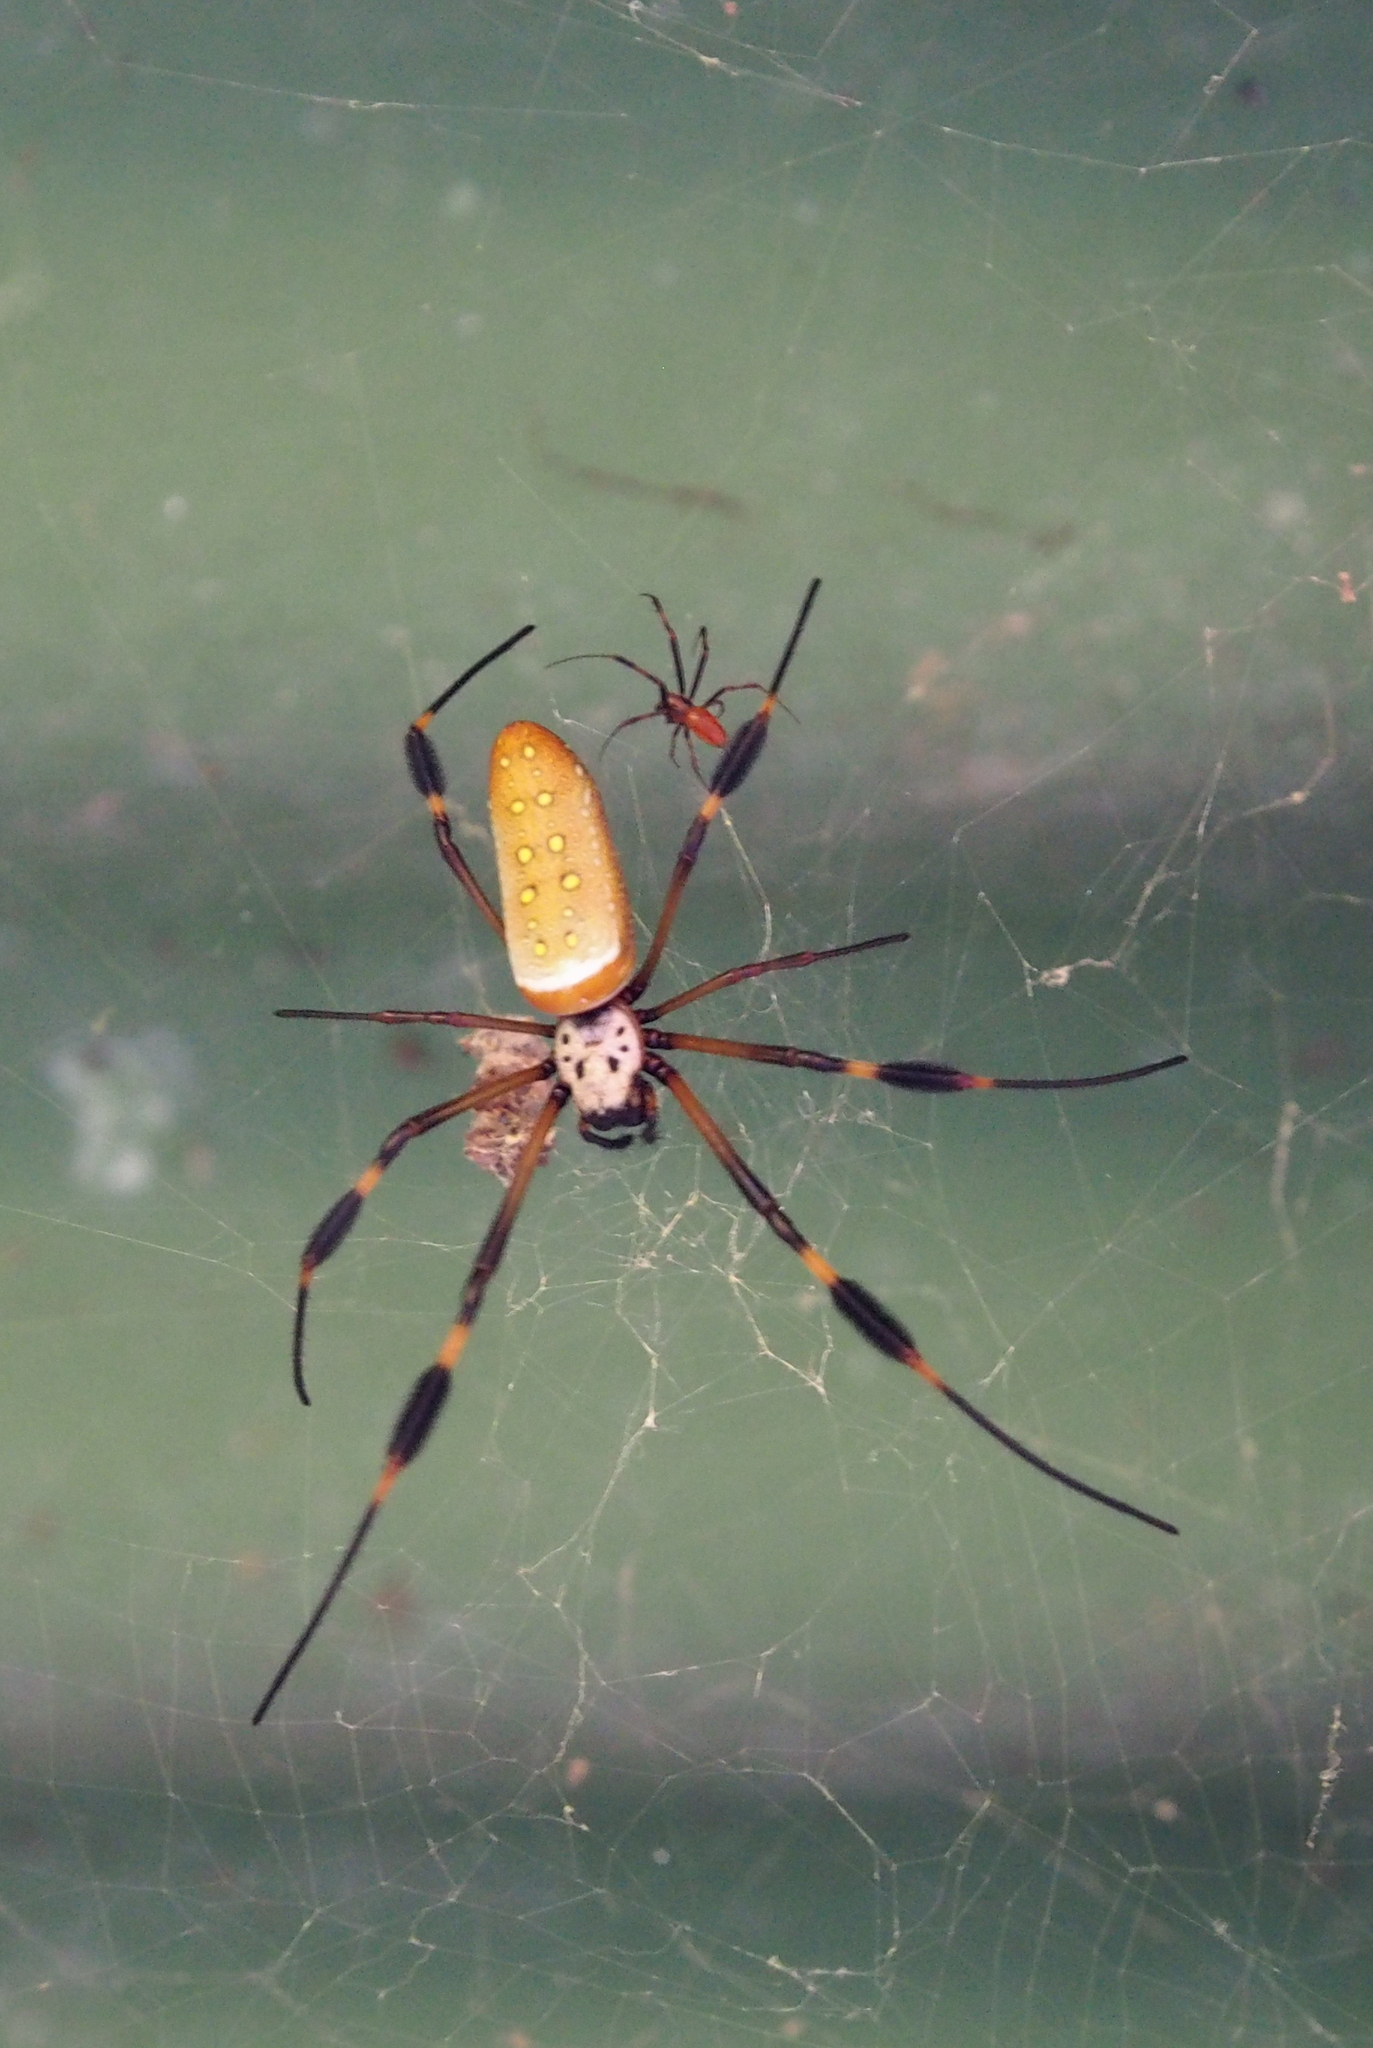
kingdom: Animalia
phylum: Arthropoda
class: Arachnida
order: Araneae
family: Araneidae
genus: Trichonephila
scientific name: Trichonephila clavipes
